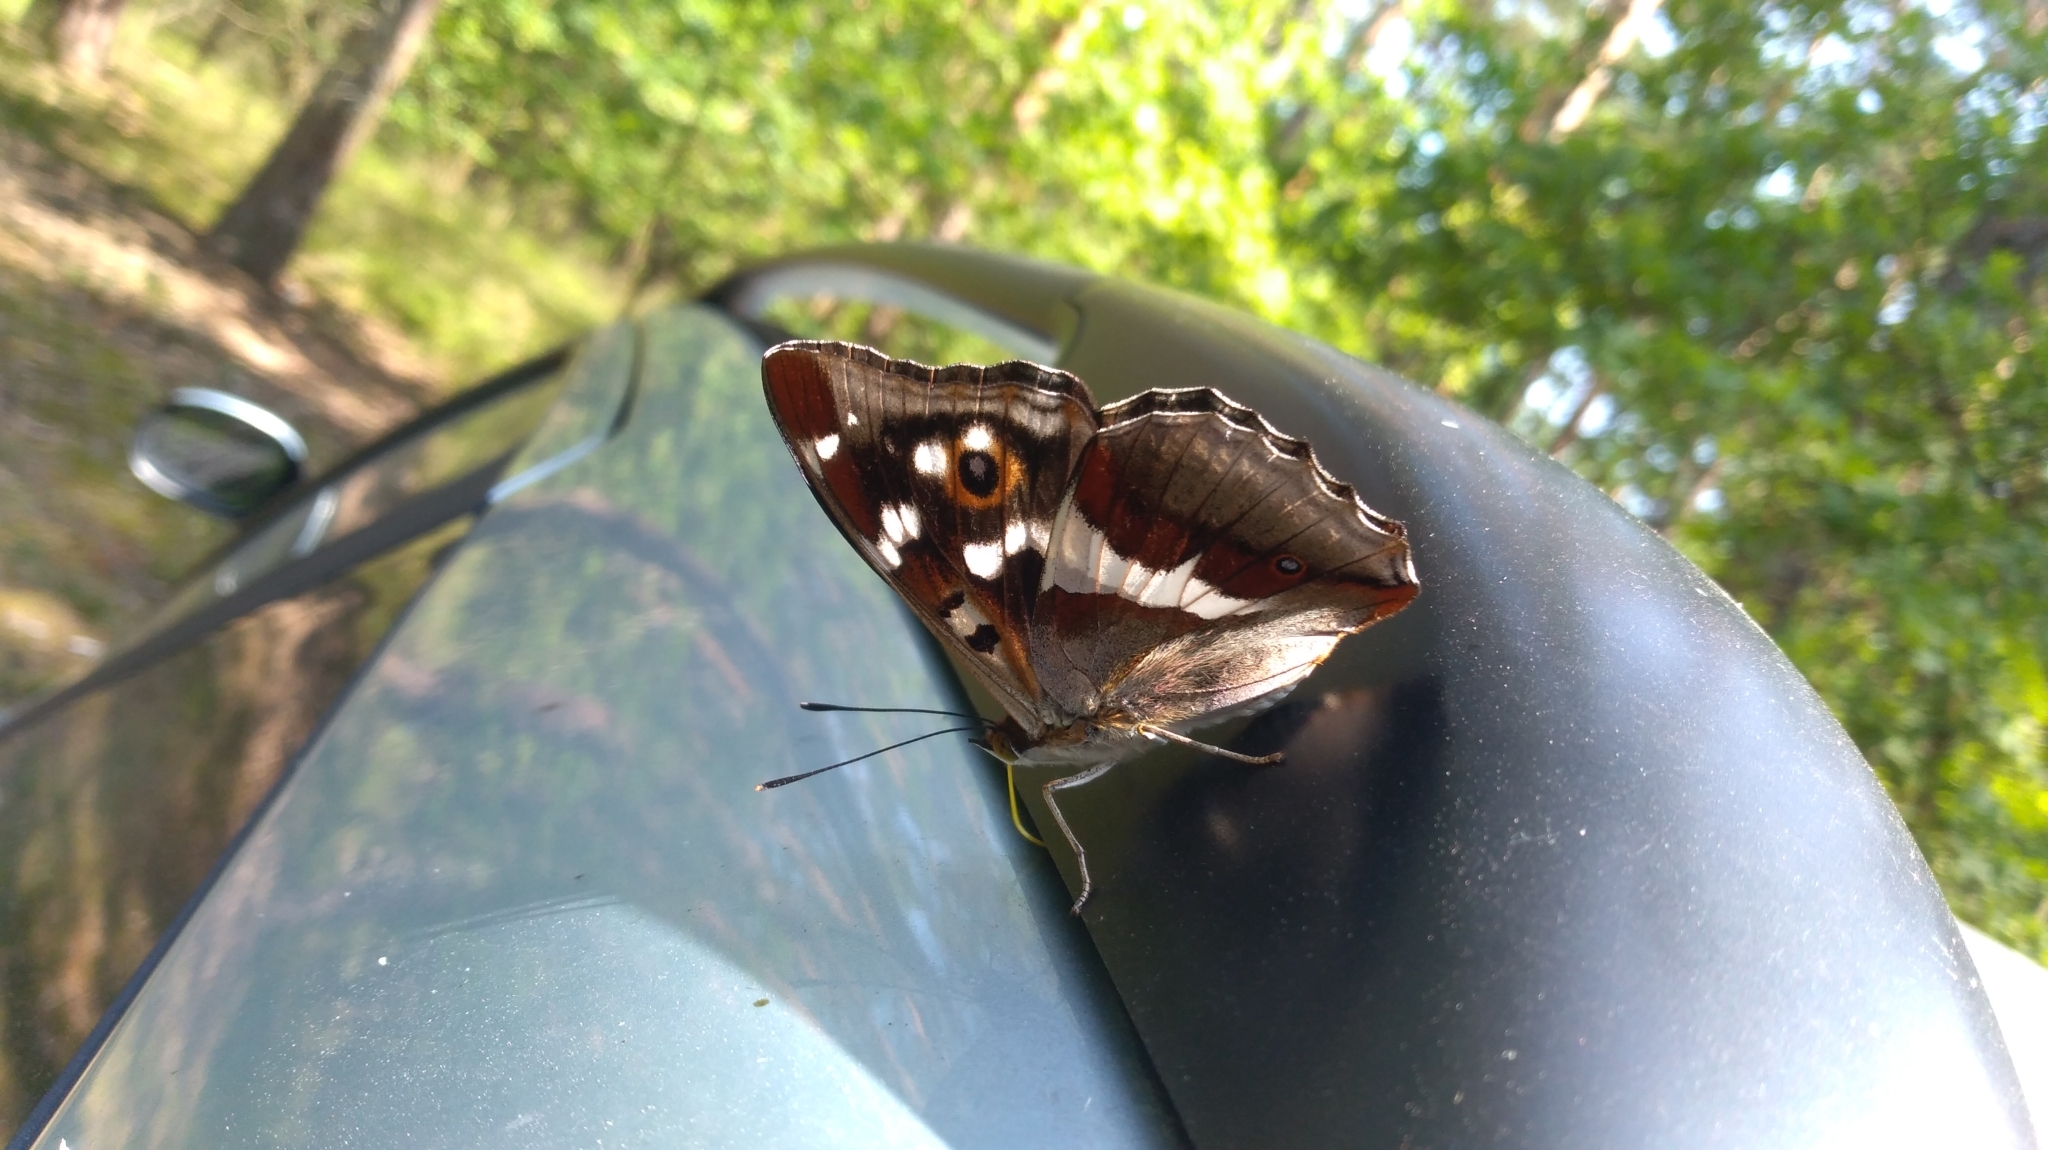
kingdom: Animalia
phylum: Arthropoda
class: Insecta
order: Lepidoptera
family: Nymphalidae
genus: Apatura
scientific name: Apatura iris
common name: Purple emperor
